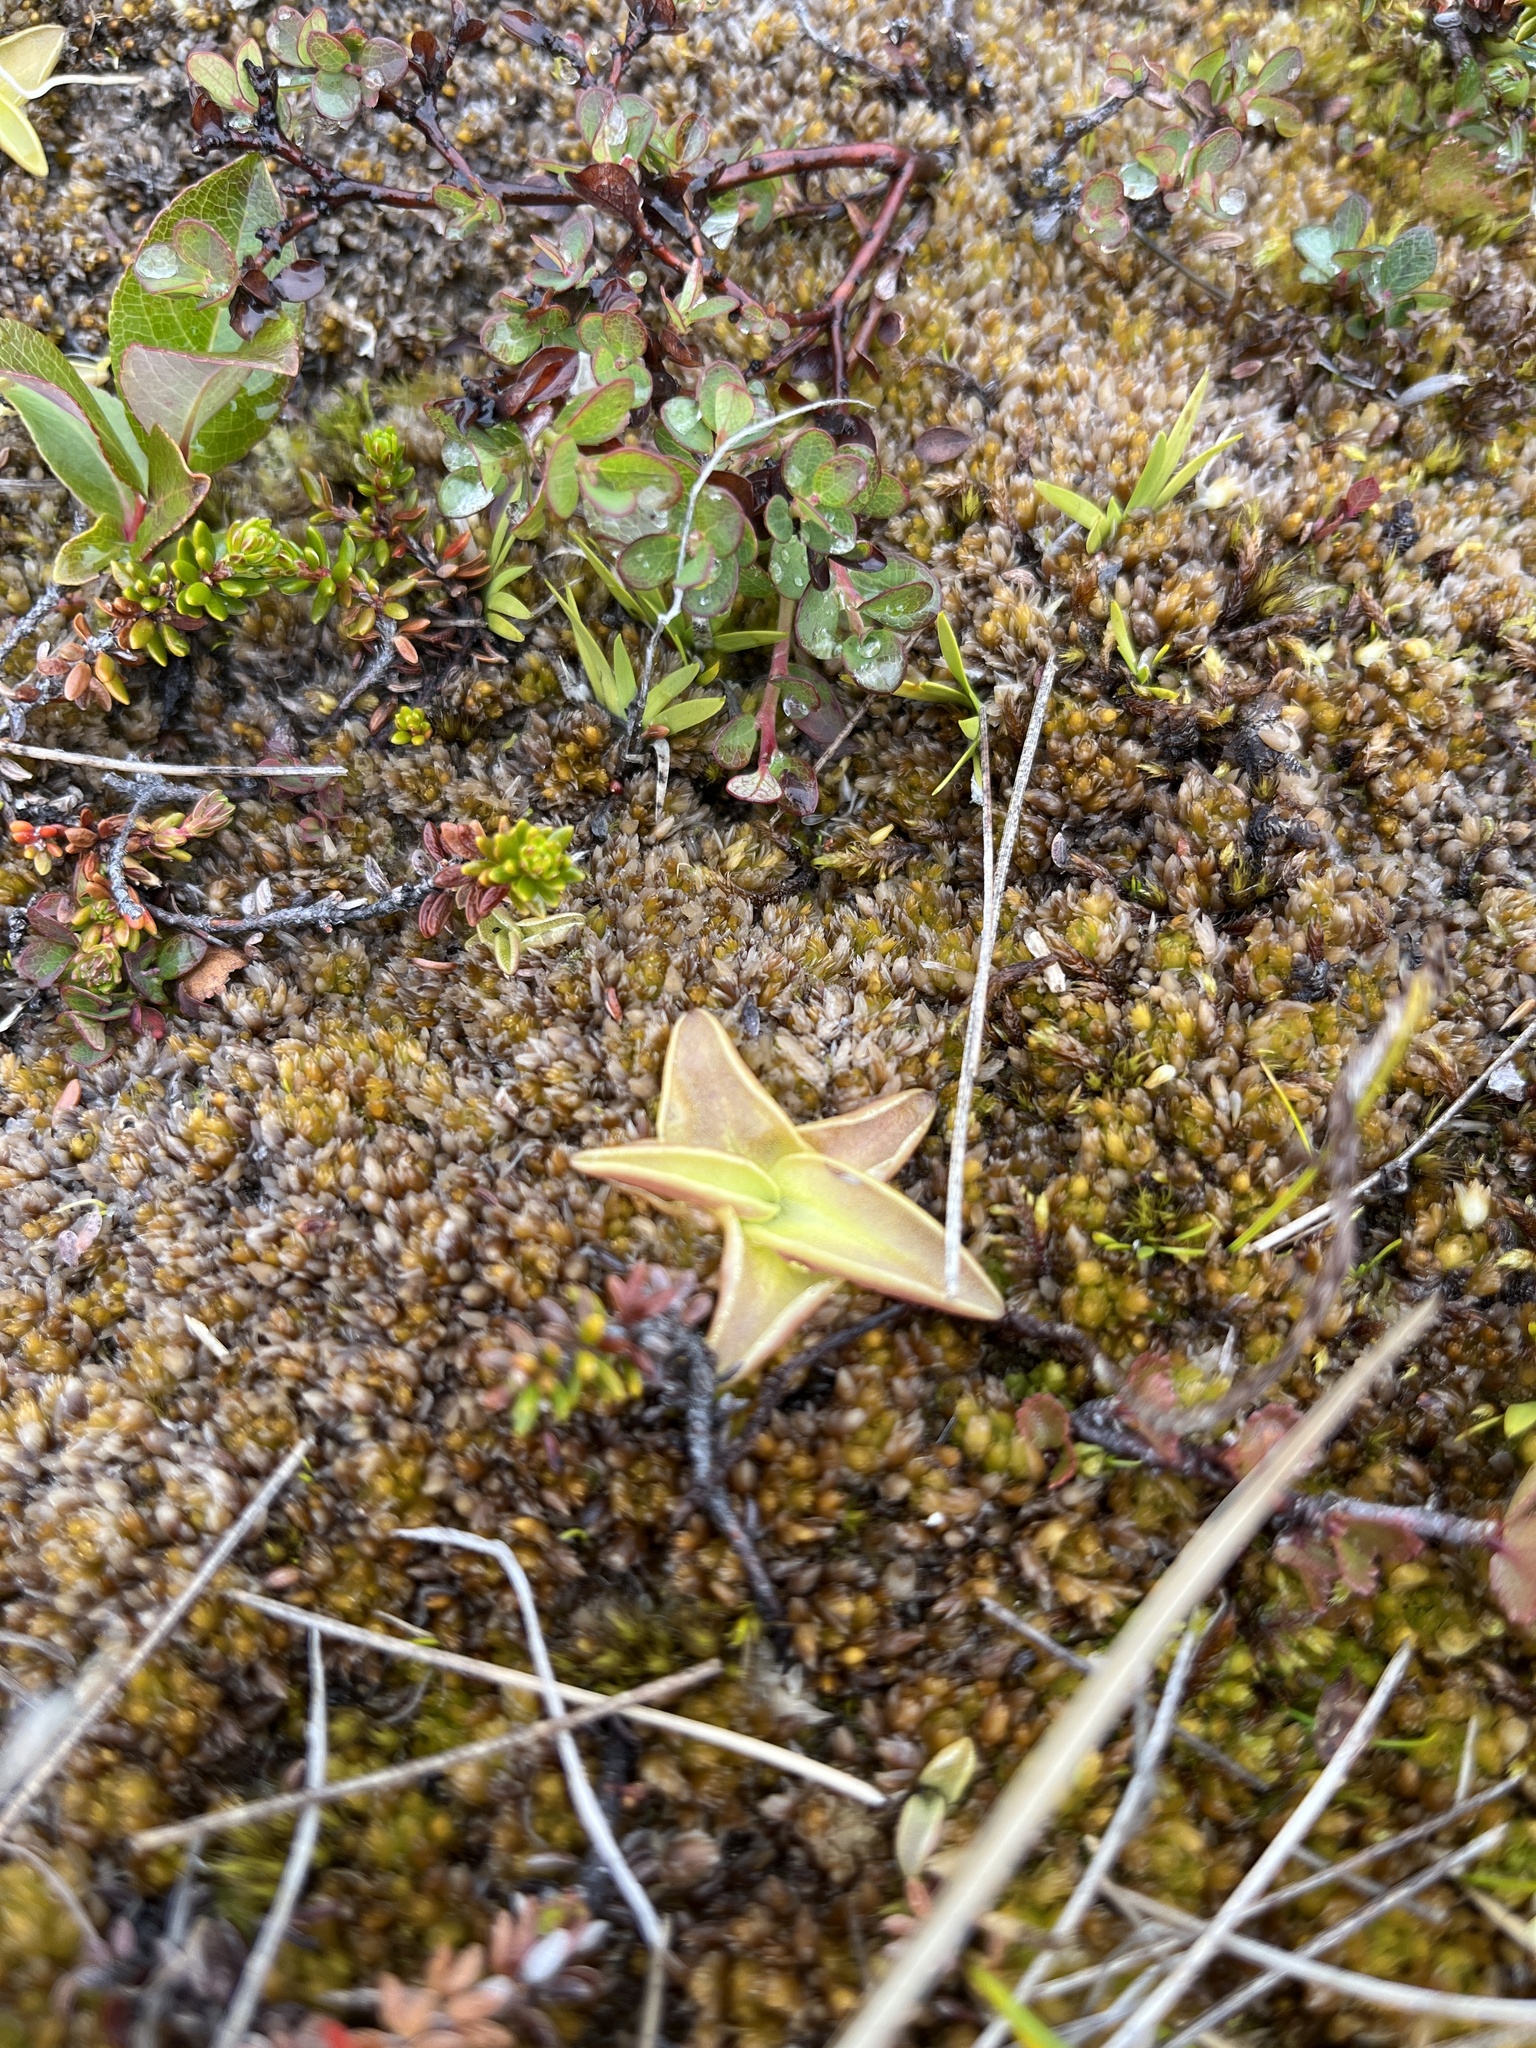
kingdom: Plantae
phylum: Tracheophyta
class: Magnoliopsida
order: Lamiales
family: Lentibulariaceae
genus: Pinguicula
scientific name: Pinguicula vulgaris
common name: Common butterwort
